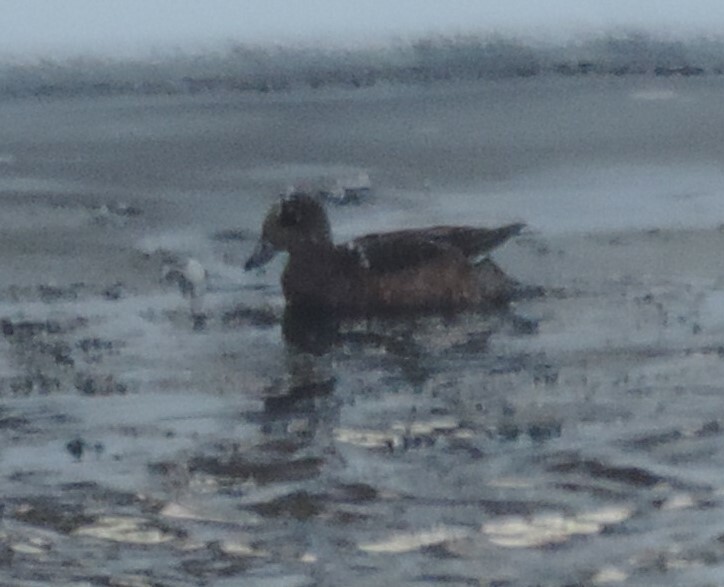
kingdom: Animalia
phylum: Chordata
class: Aves
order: Anseriformes
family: Anatidae
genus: Mareca
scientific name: Mareca americana
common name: American wigeon
